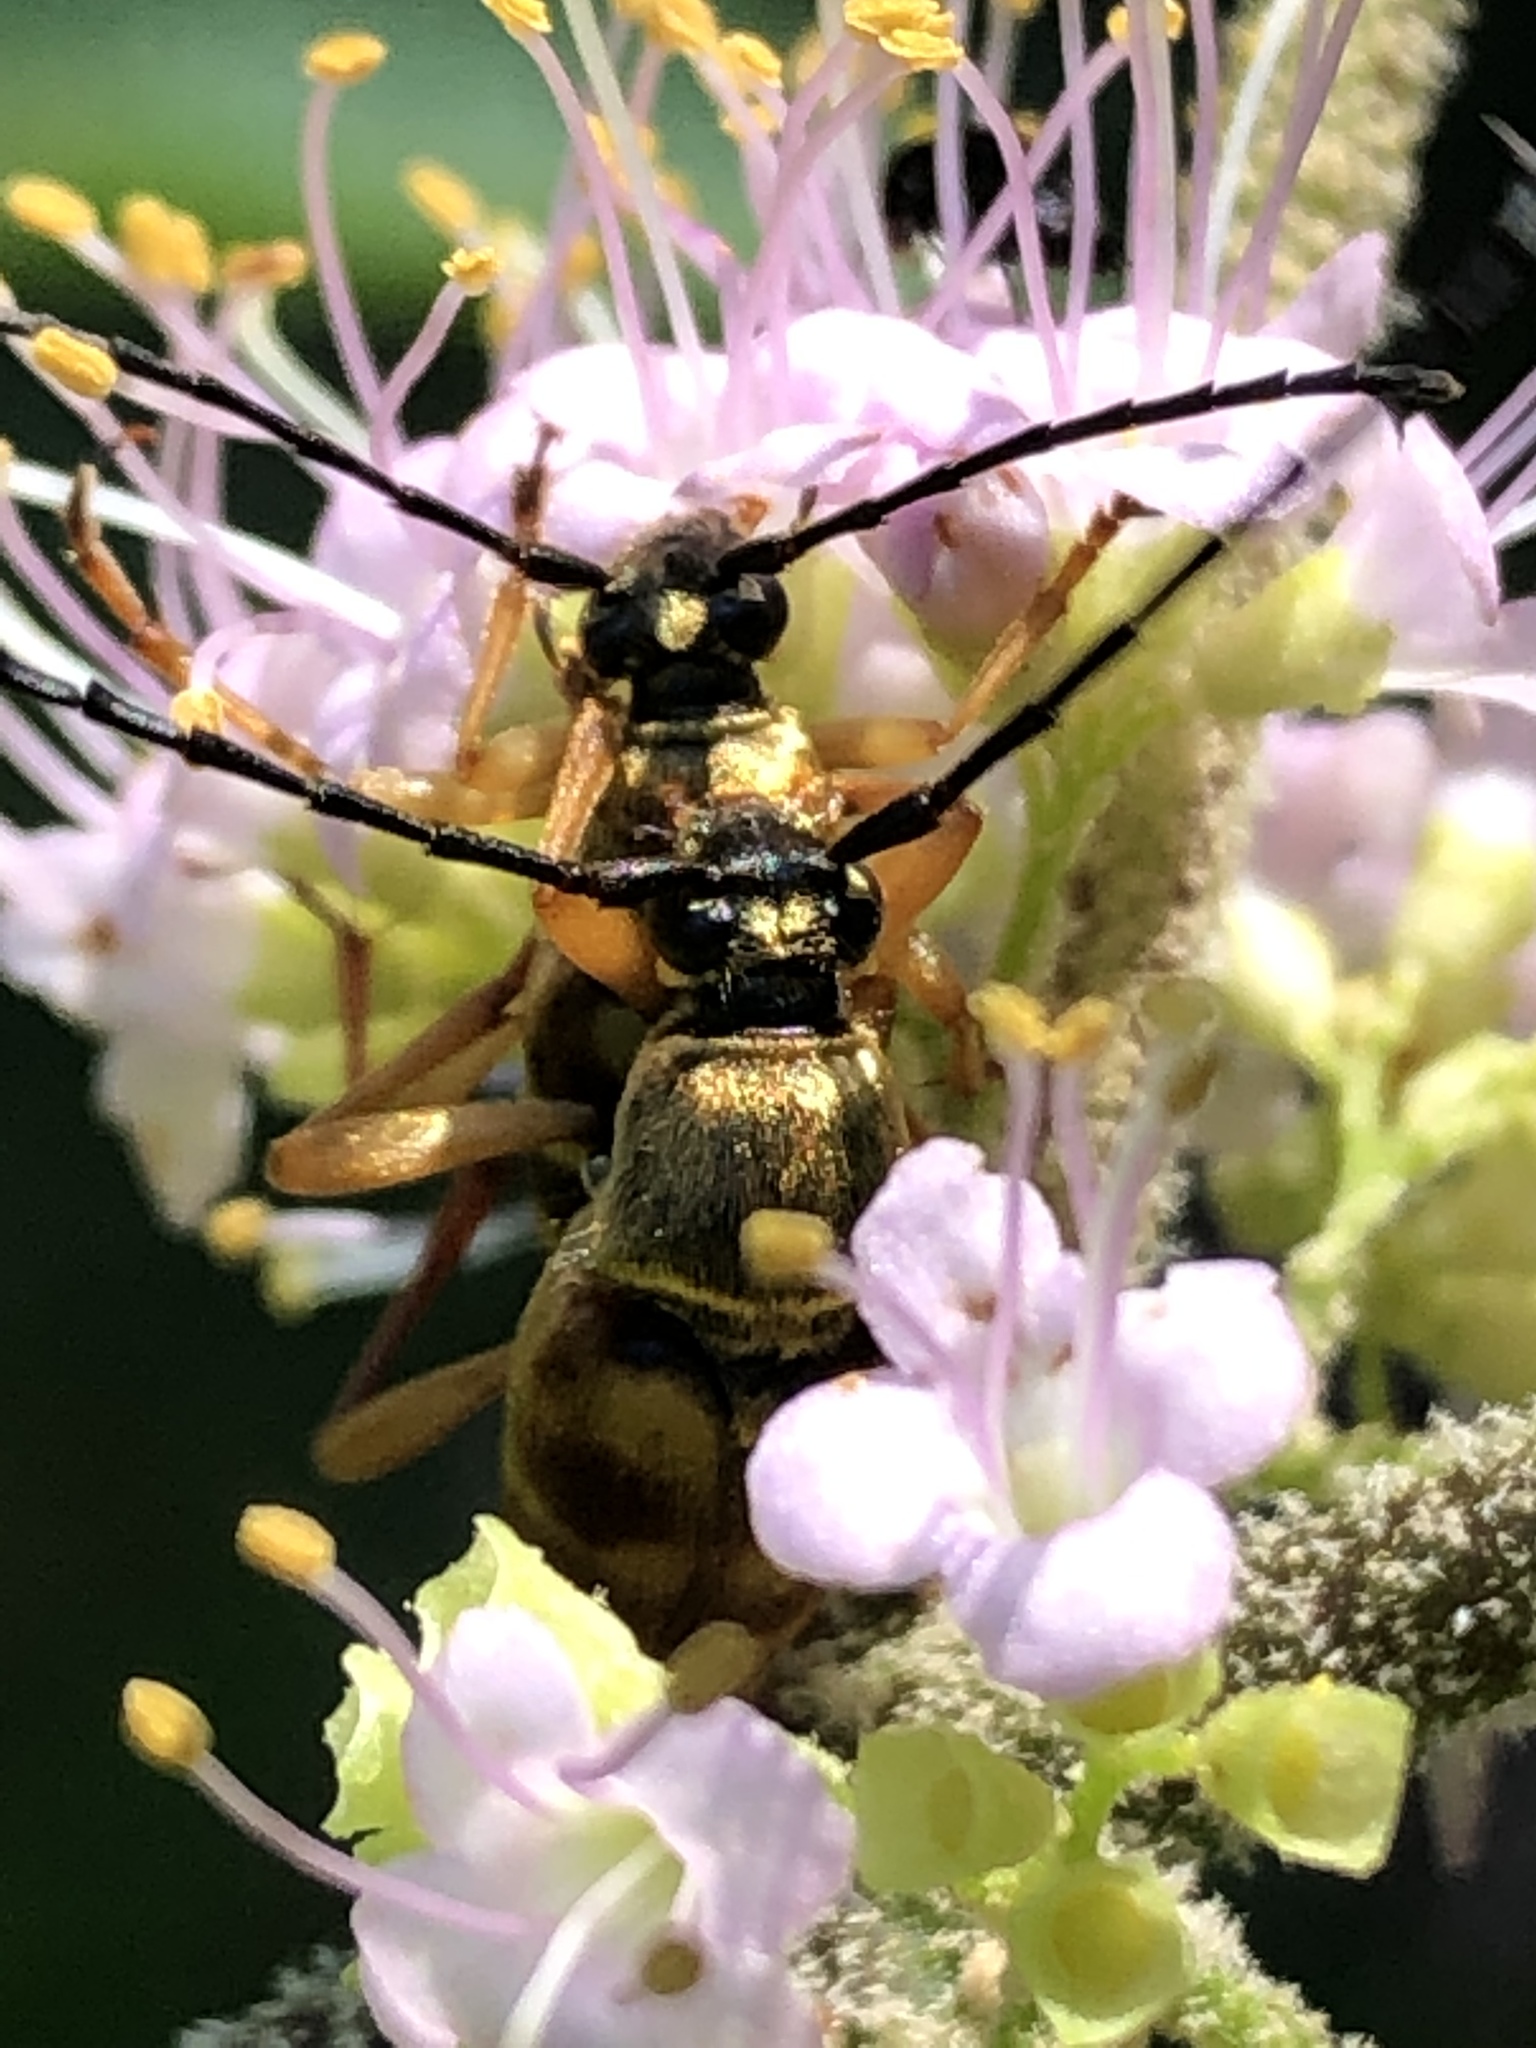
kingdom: Animalia
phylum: Arthropoda
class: Insecta
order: Coleoptera
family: Cerambycidae
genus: Typocerus
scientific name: Typocerus velutinus
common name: Banded longhorn beetle
